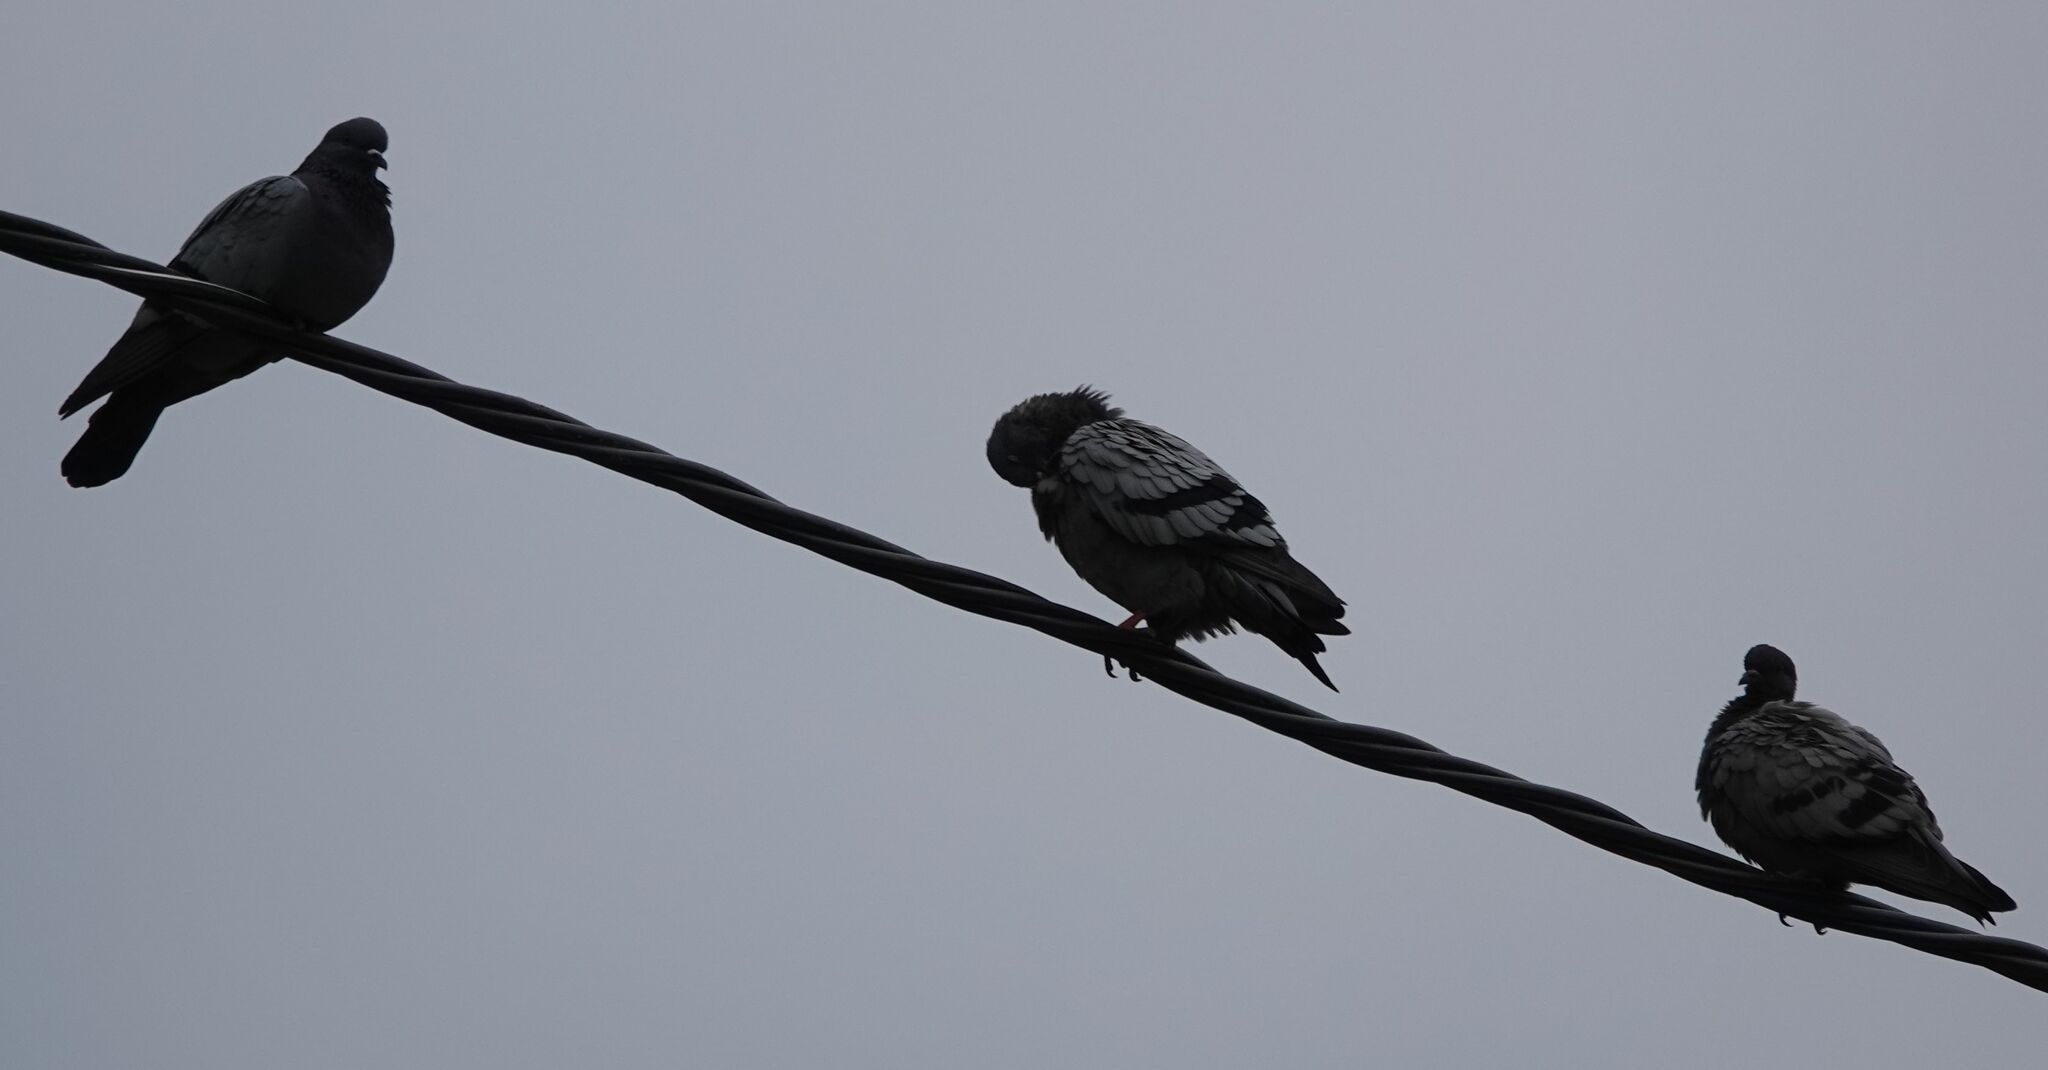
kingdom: Animalia
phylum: Chordata
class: Aves
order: Columbiformes
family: Columbidae
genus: Columba
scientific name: Columba livia
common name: Rock pigeon
